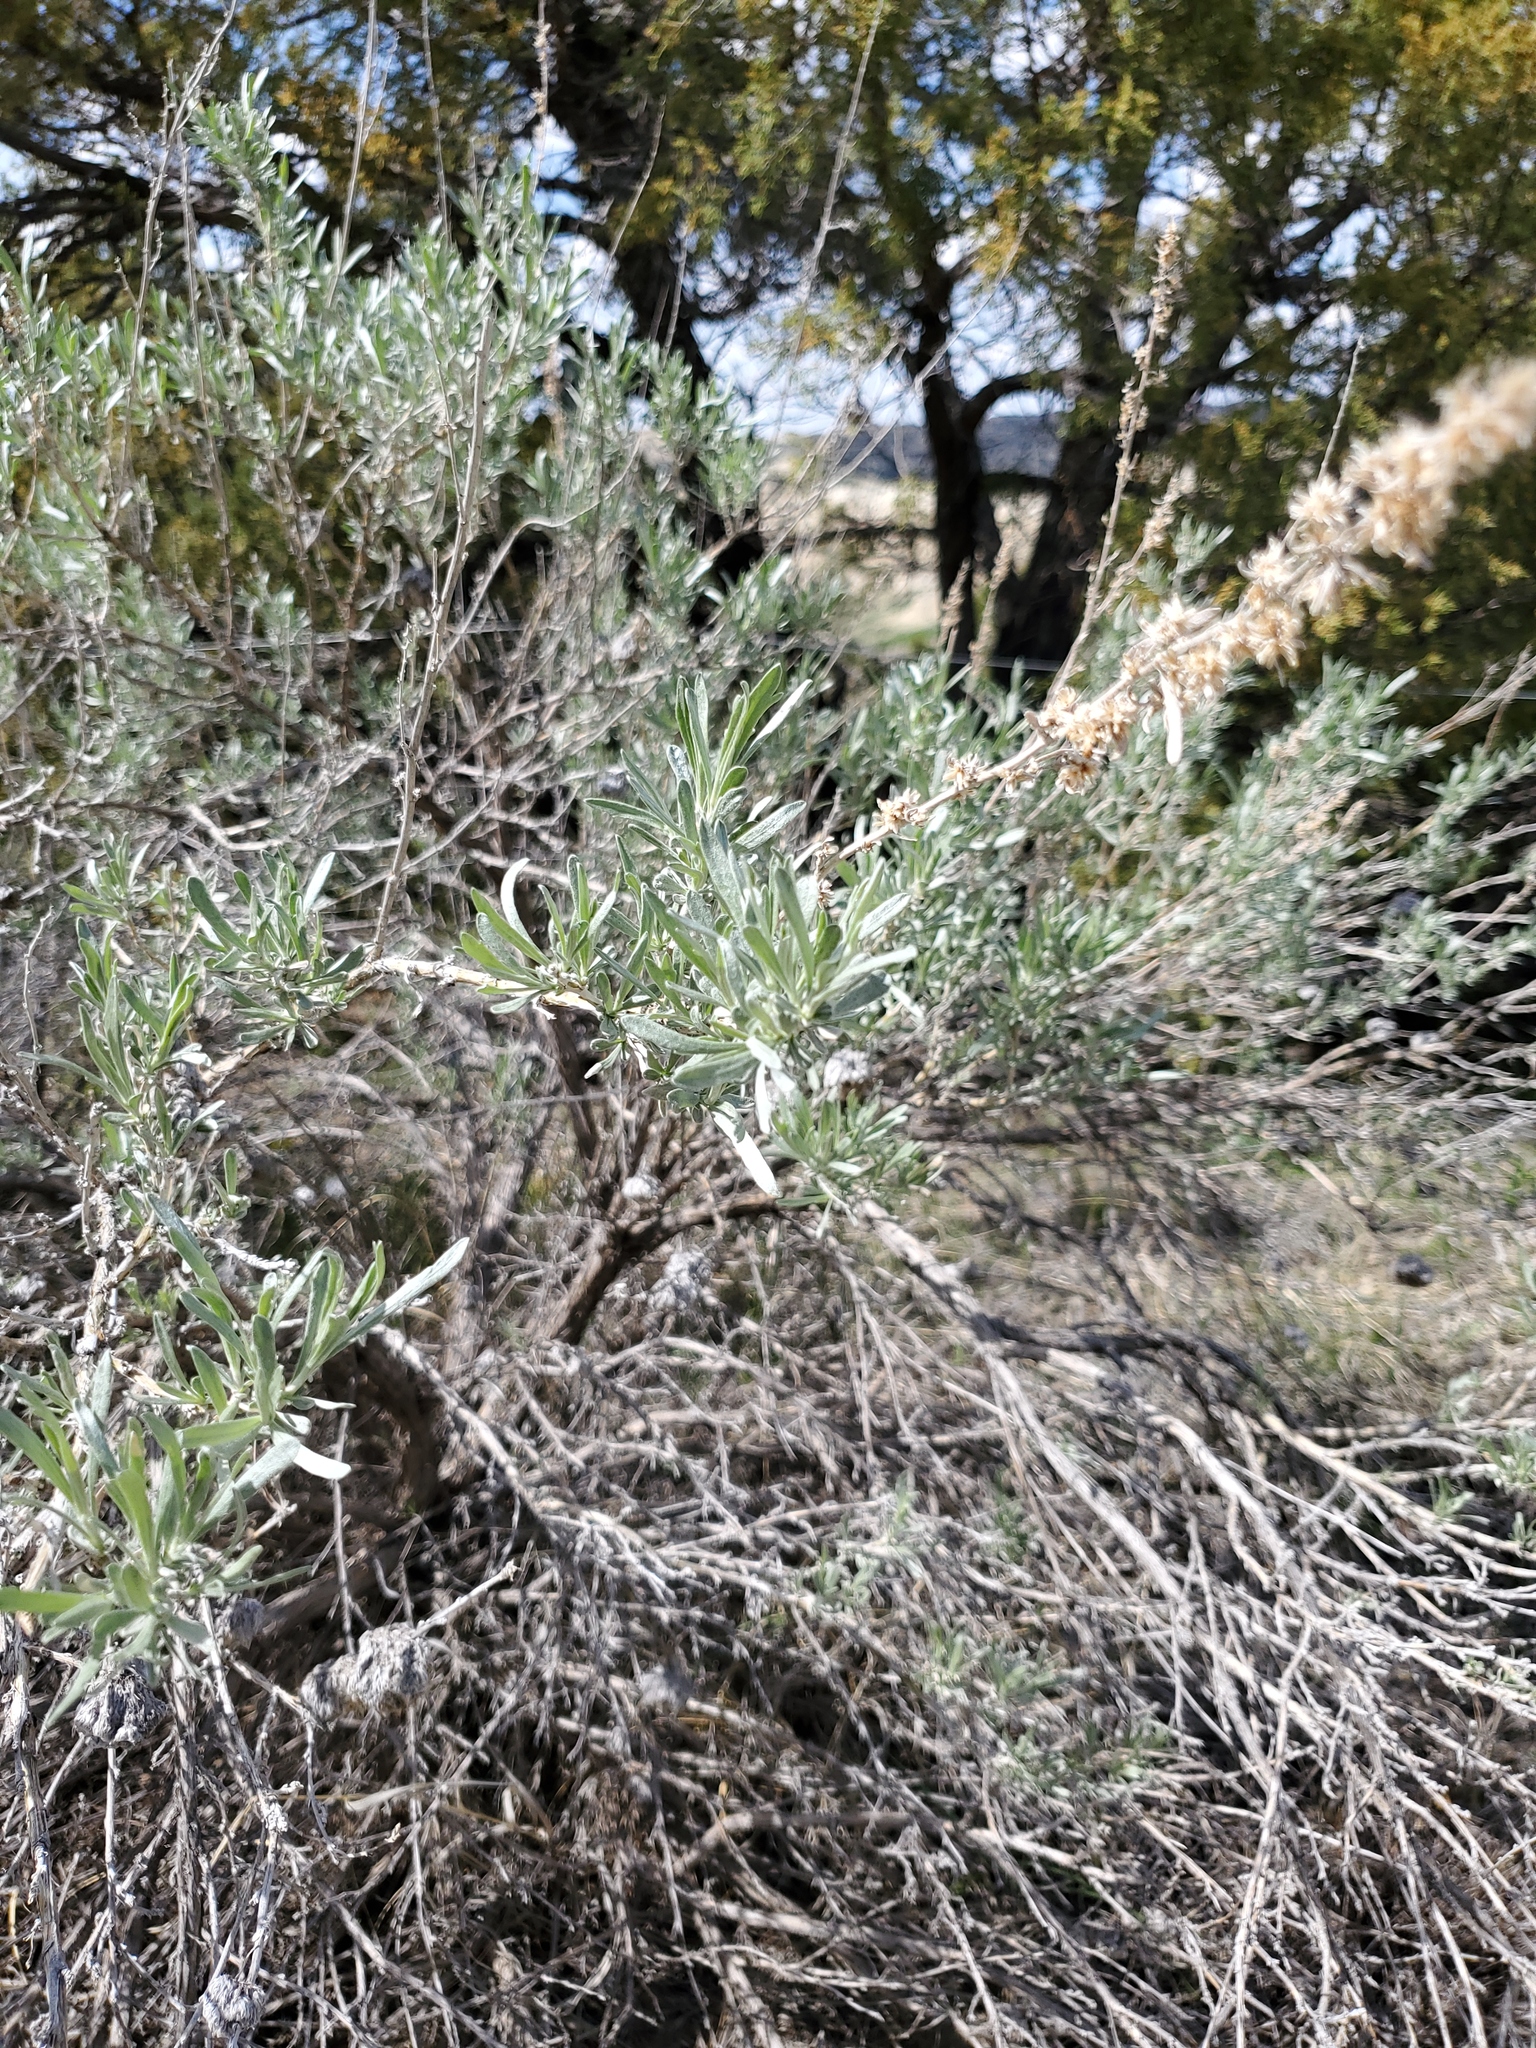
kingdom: Plantae
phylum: Tracheophyta
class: Magnoliopsida
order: Asterales
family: Asteraceae
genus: Artemisia
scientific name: Artemisia cana
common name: Silver sagebrush
